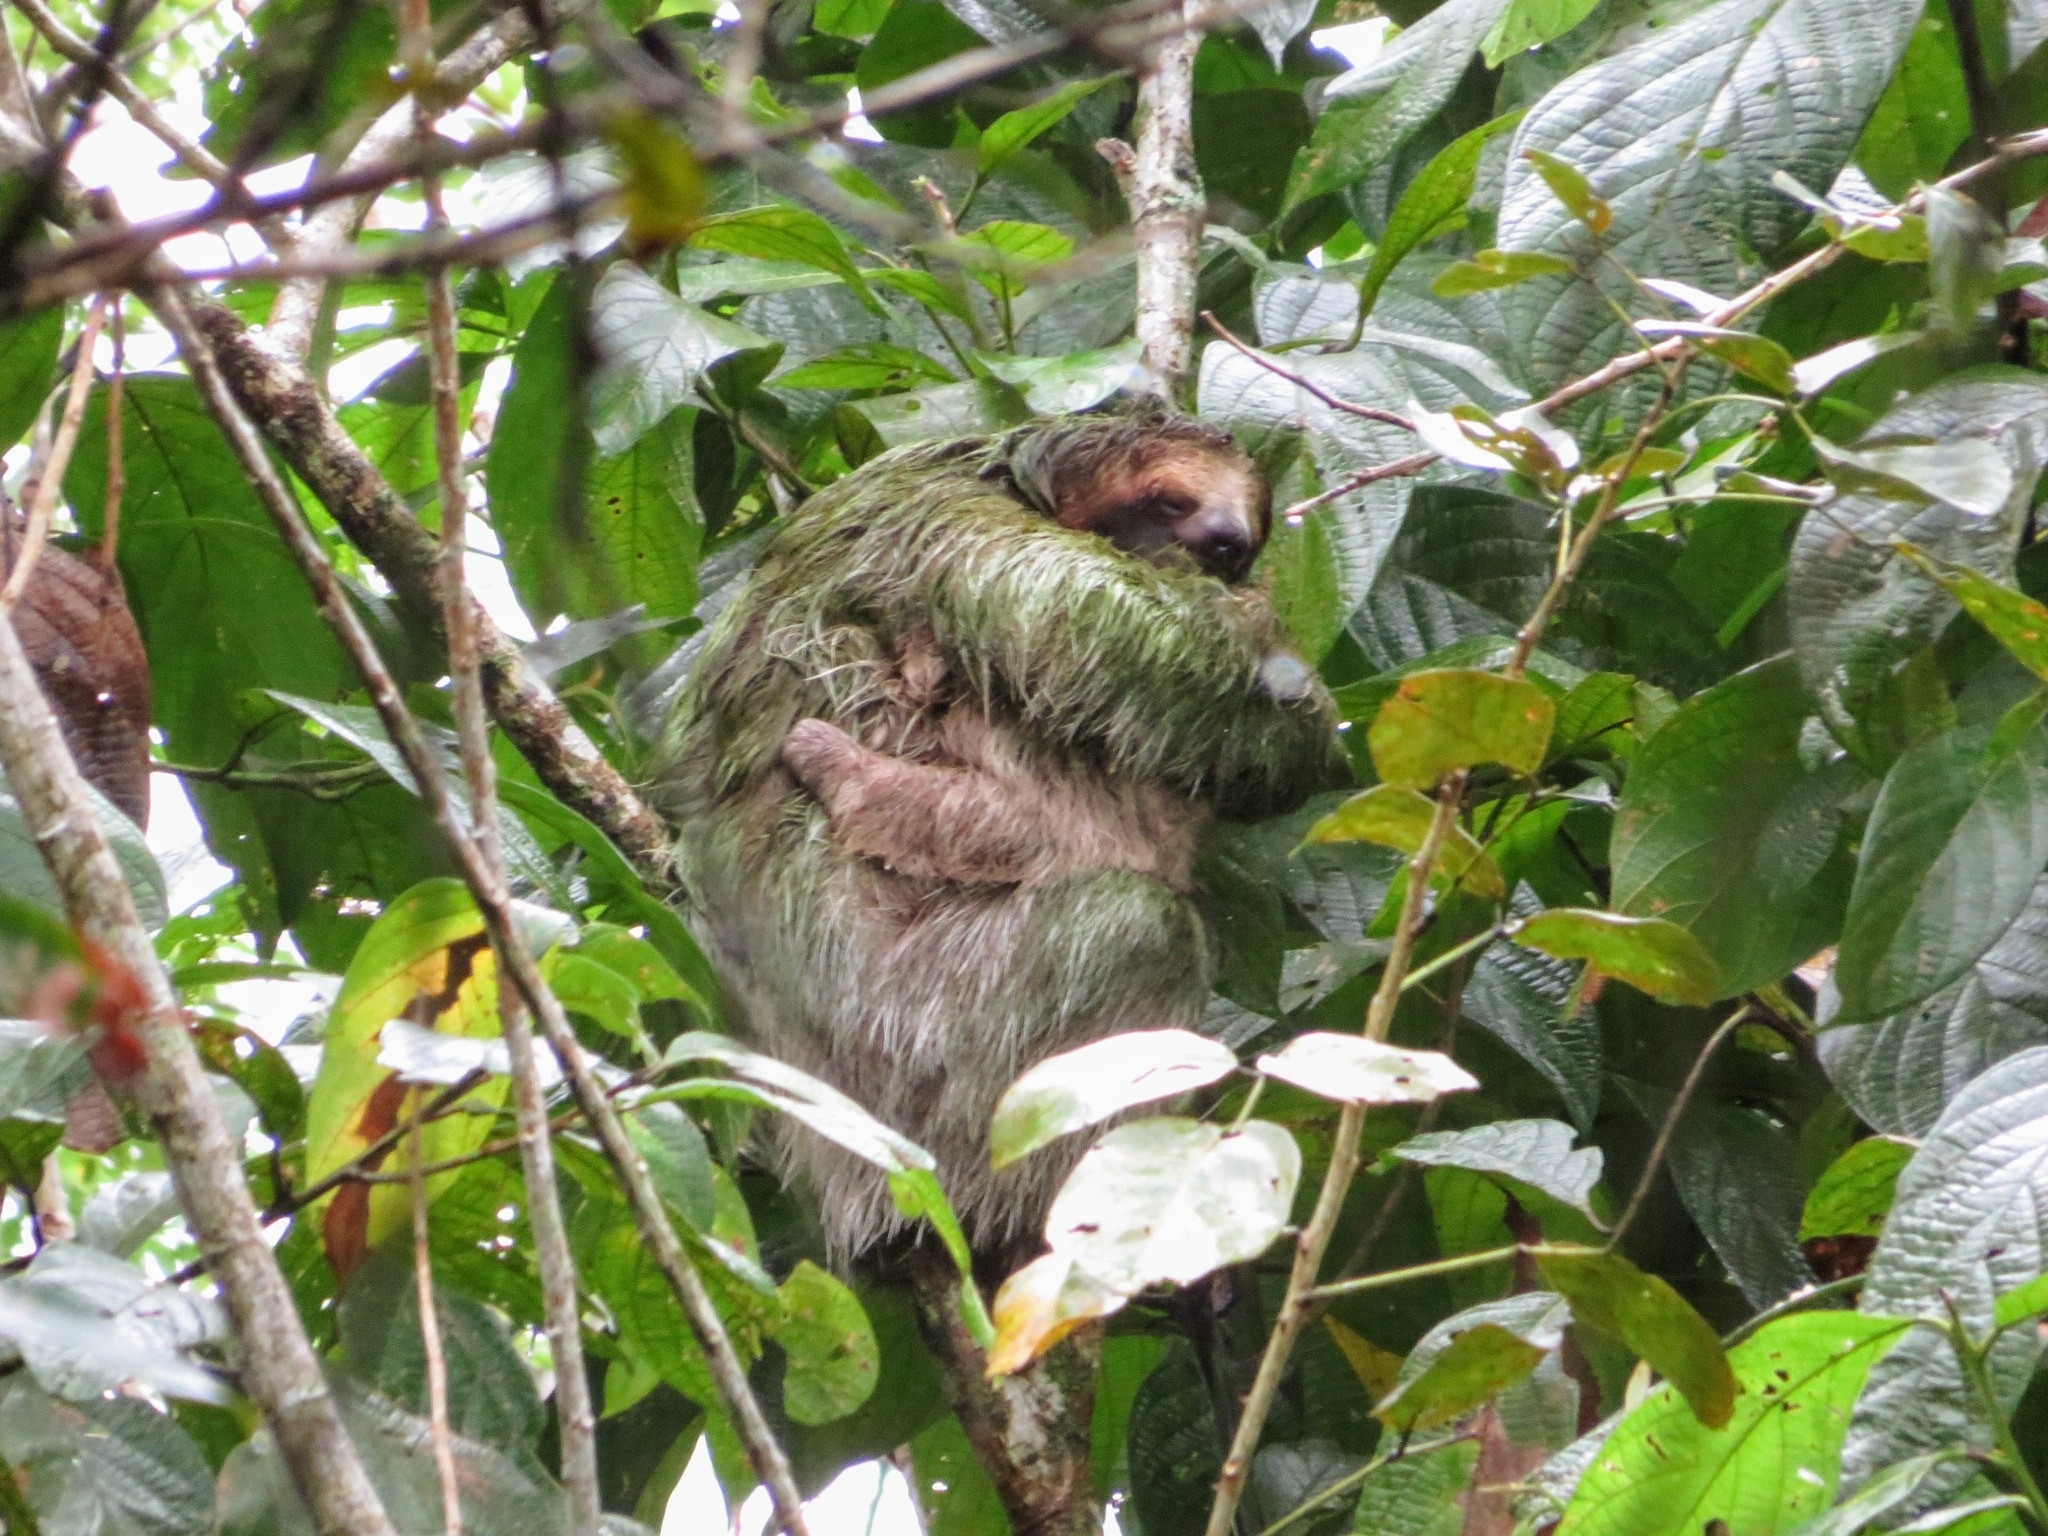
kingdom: Animalia
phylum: Chordata
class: Mammalia
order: Pilosa
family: Bradypodidae
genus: Bradypus
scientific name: Bradypus variegatus
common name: Brown-throated three-toed sloth
